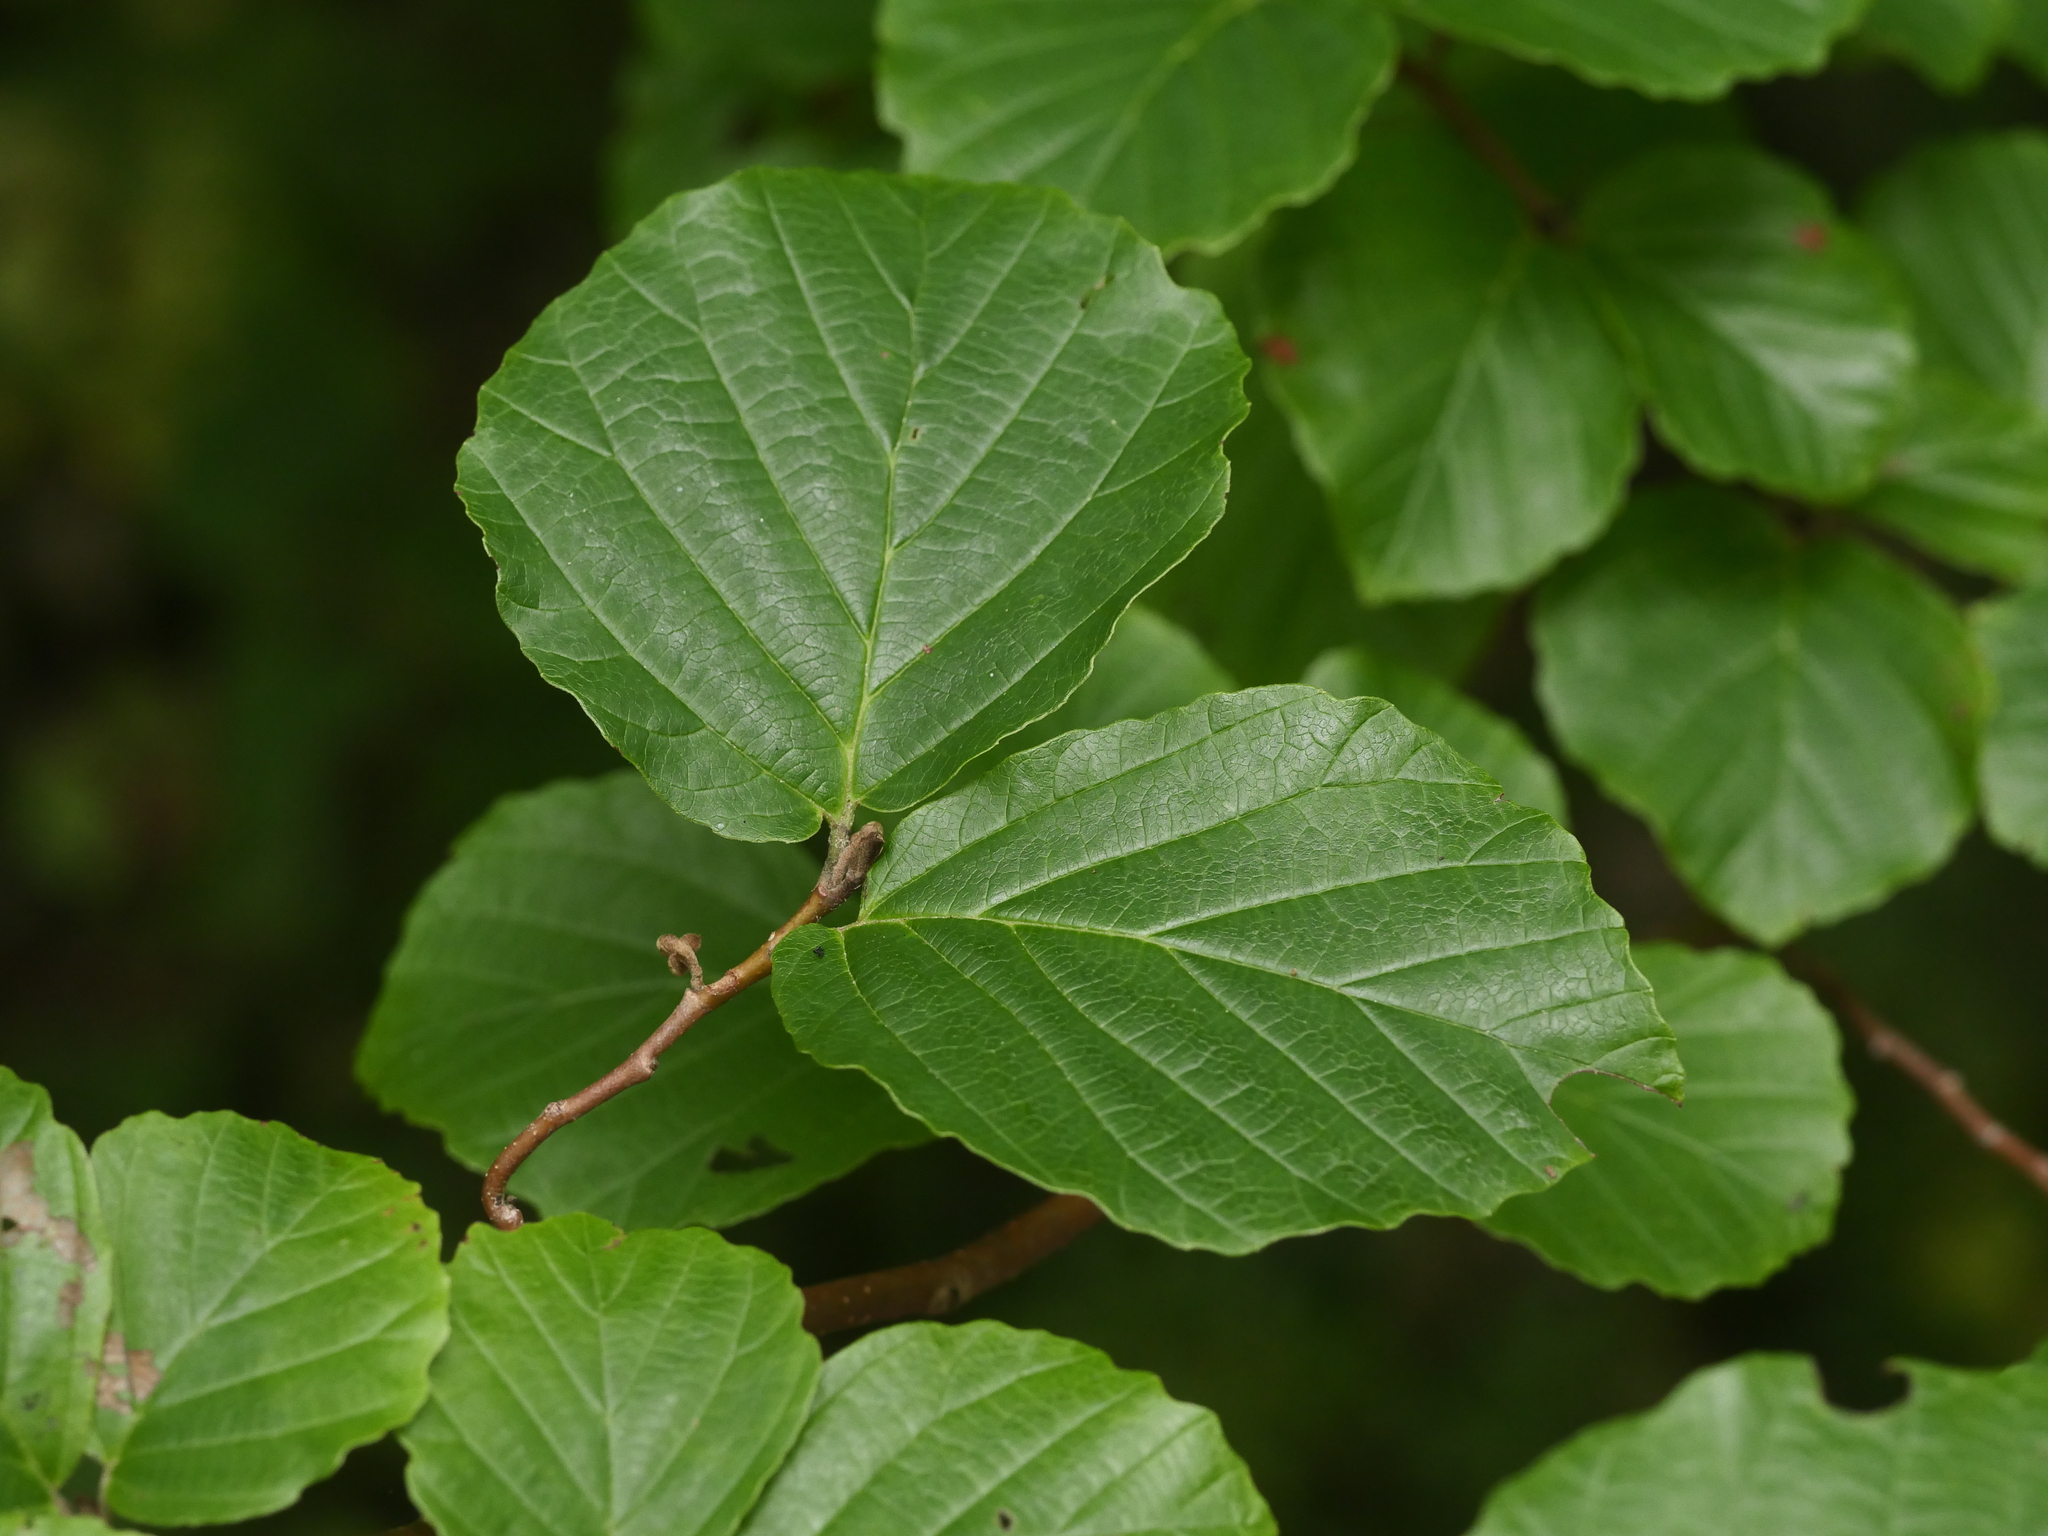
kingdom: Plantae
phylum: Tracheophyta
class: Magnoliopsida
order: Saxifragales
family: Hamamelidaceae
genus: Hamamelis
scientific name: Hamamelis virginiana
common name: Witch-hazel
